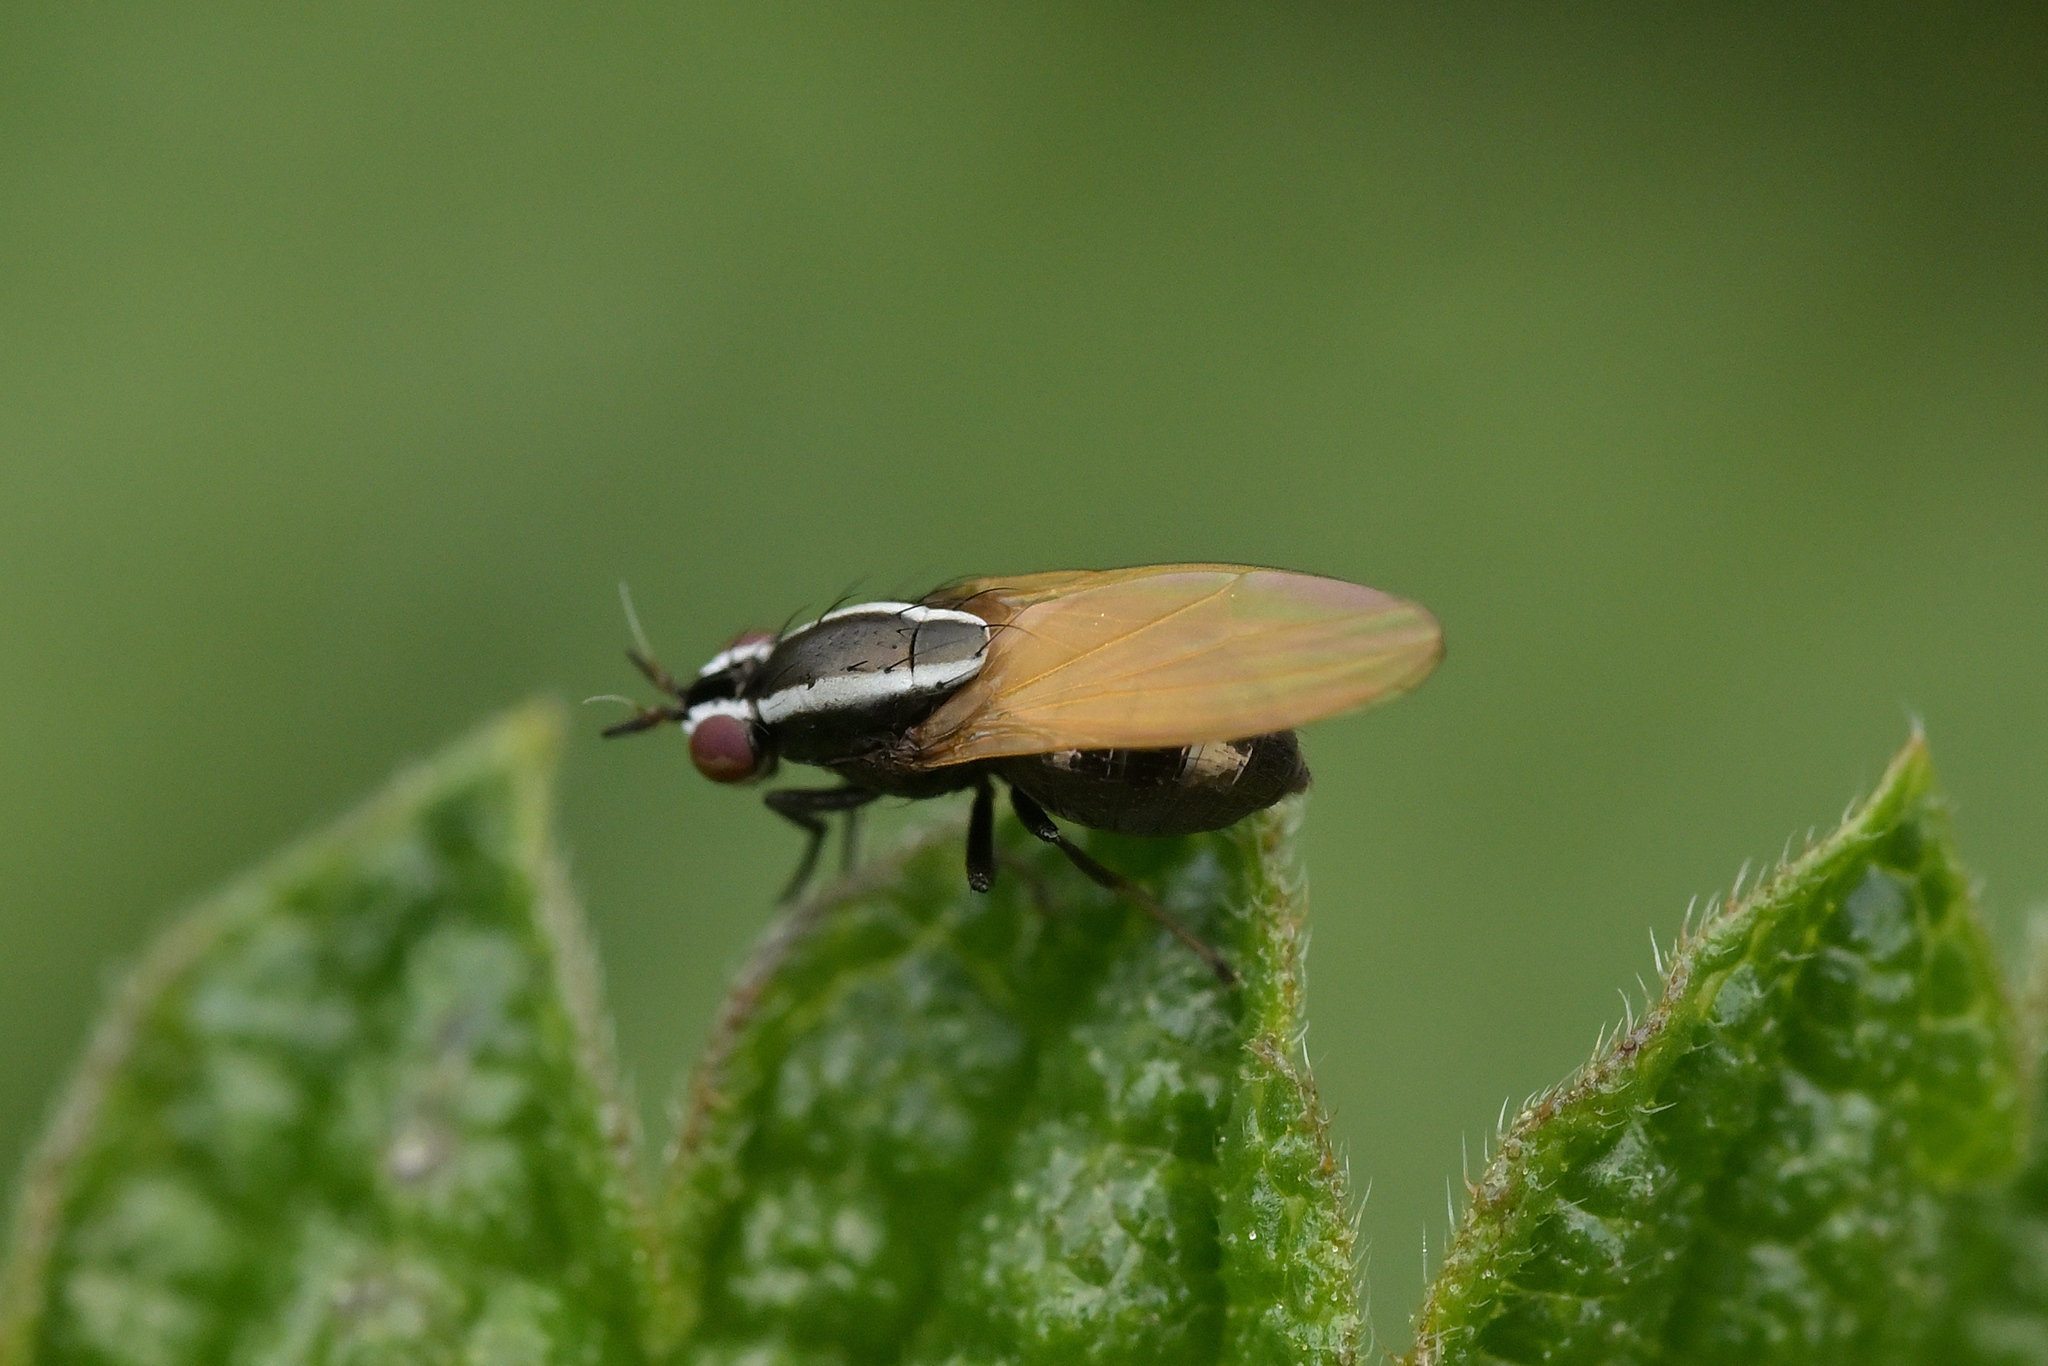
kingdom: Animalia
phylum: Arthropoda
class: Insecta
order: Diptera
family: Lauxaniidae
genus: Poecilohetaerella
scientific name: Poecilohetaerella bilineata
